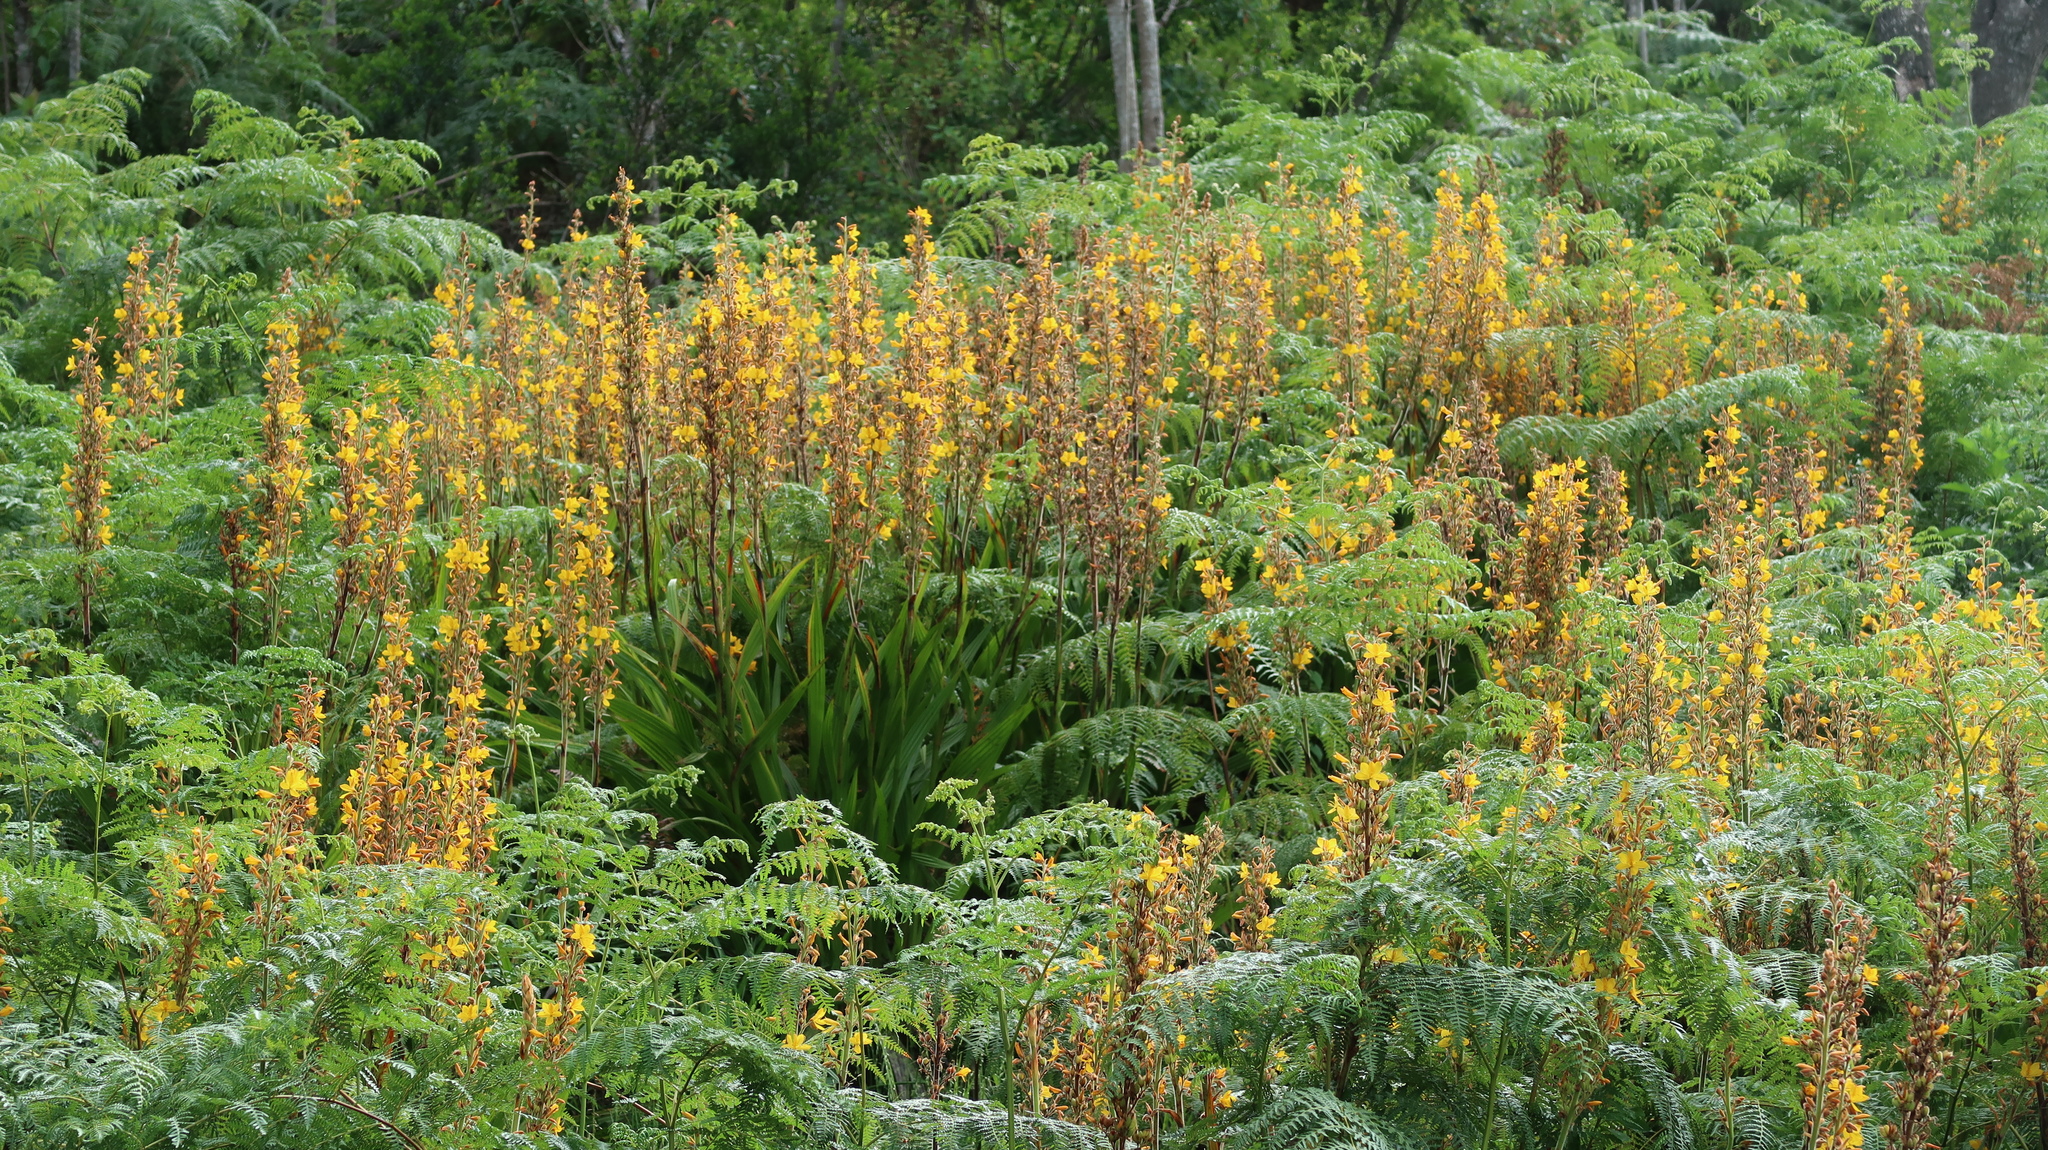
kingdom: Plantae
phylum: Tracheophyta
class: Liliopsida
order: Commelinales
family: Haemodoraceae
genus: Wachendorfia
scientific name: Wachendorfia thyrsiflora
